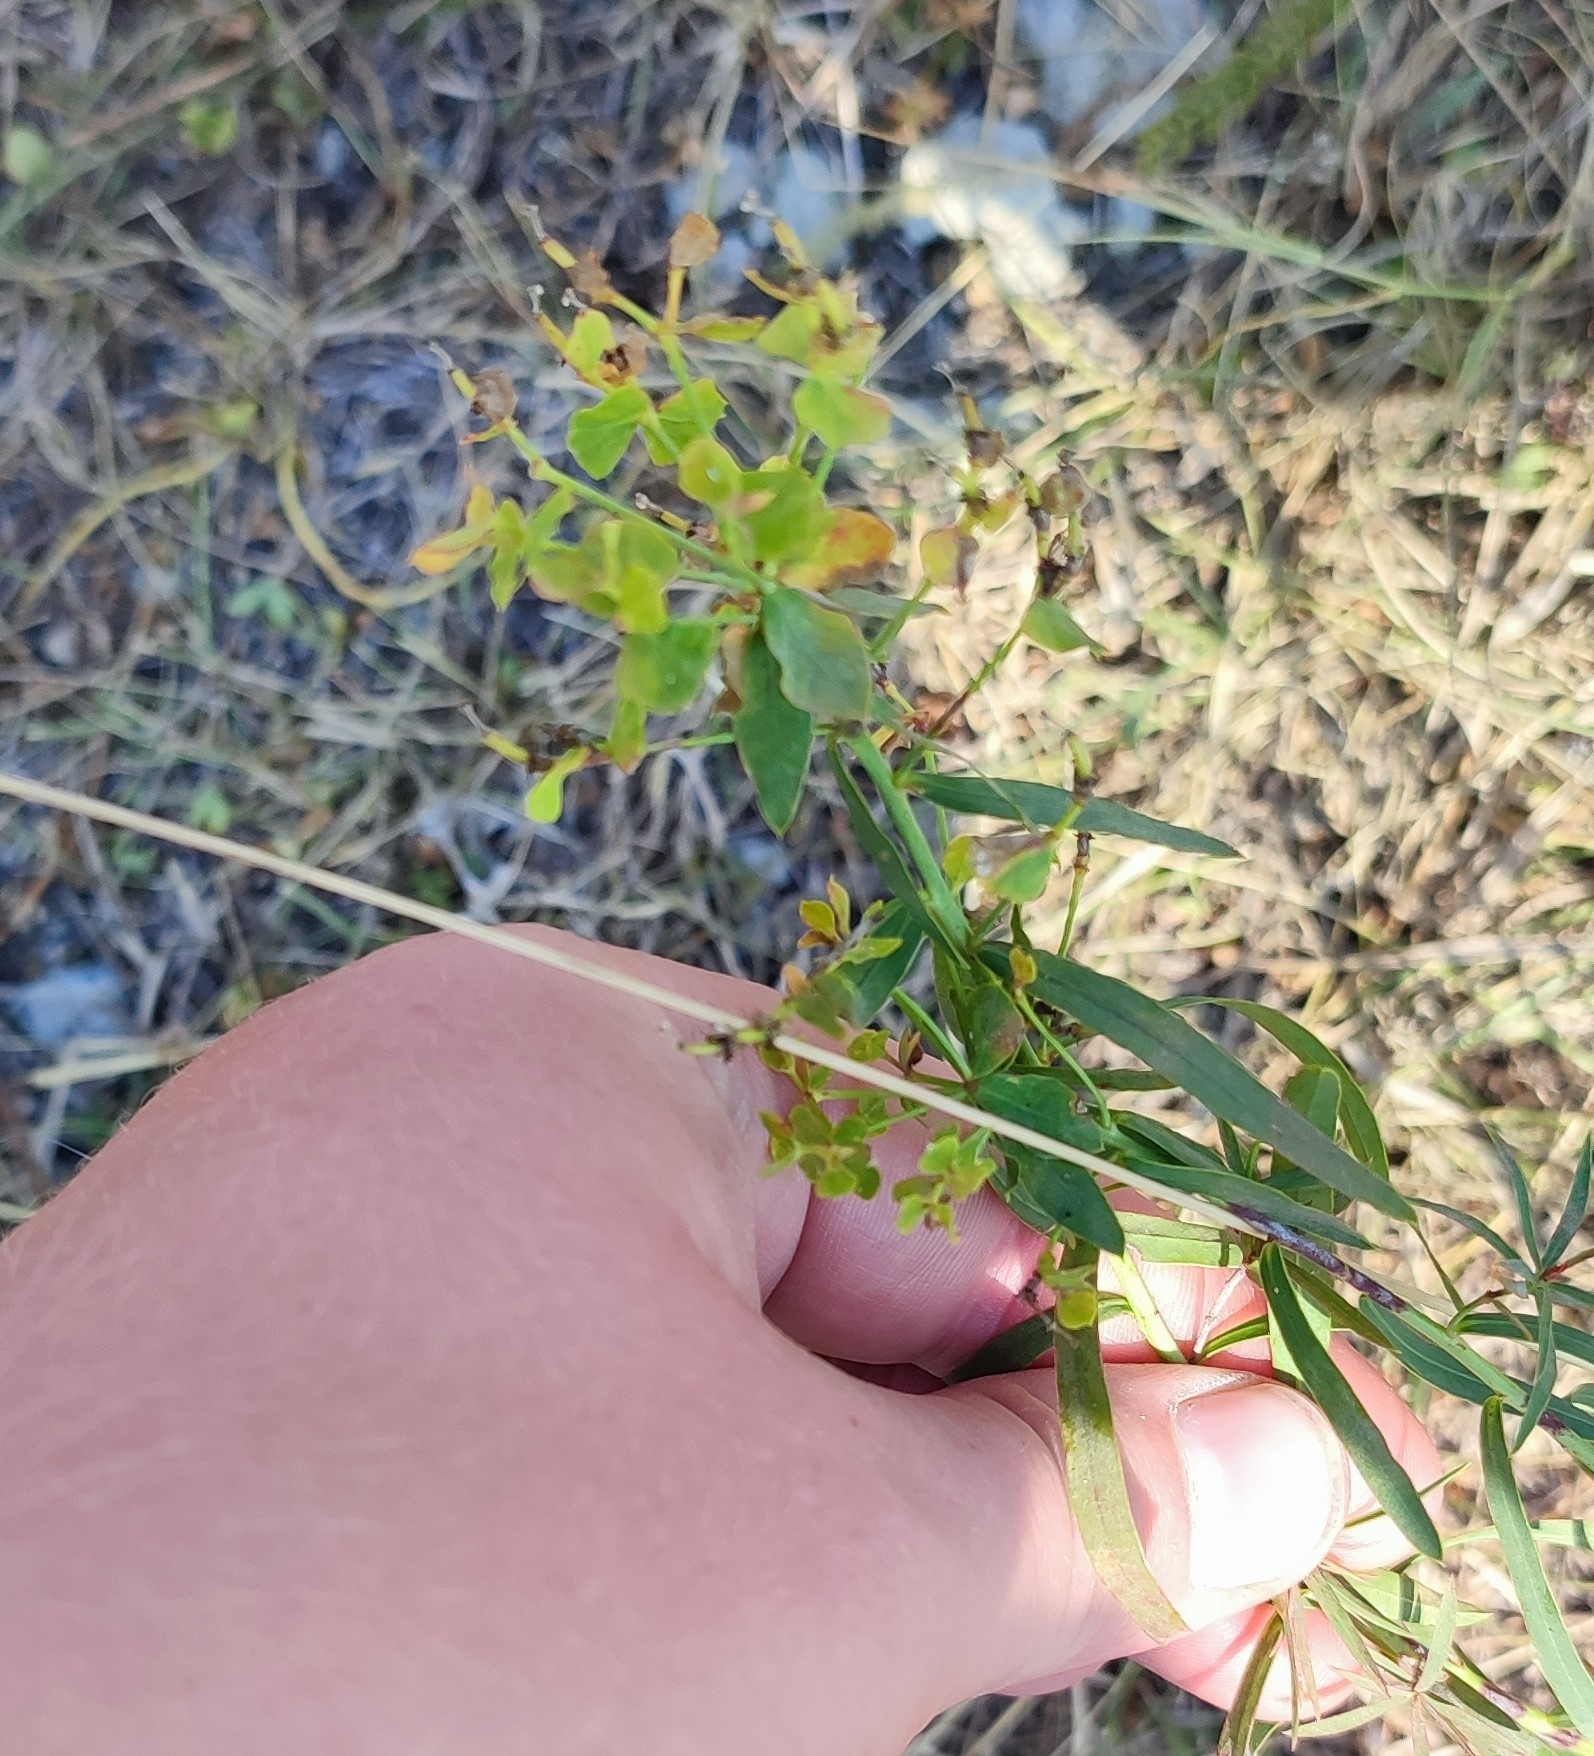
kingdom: Plantae
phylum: Tracheophyta
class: Magnoliopsida
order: Malpighiales
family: Euphorbiaceae
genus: Euphorbia
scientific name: Euphorbia virgata
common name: Leafy spurge
